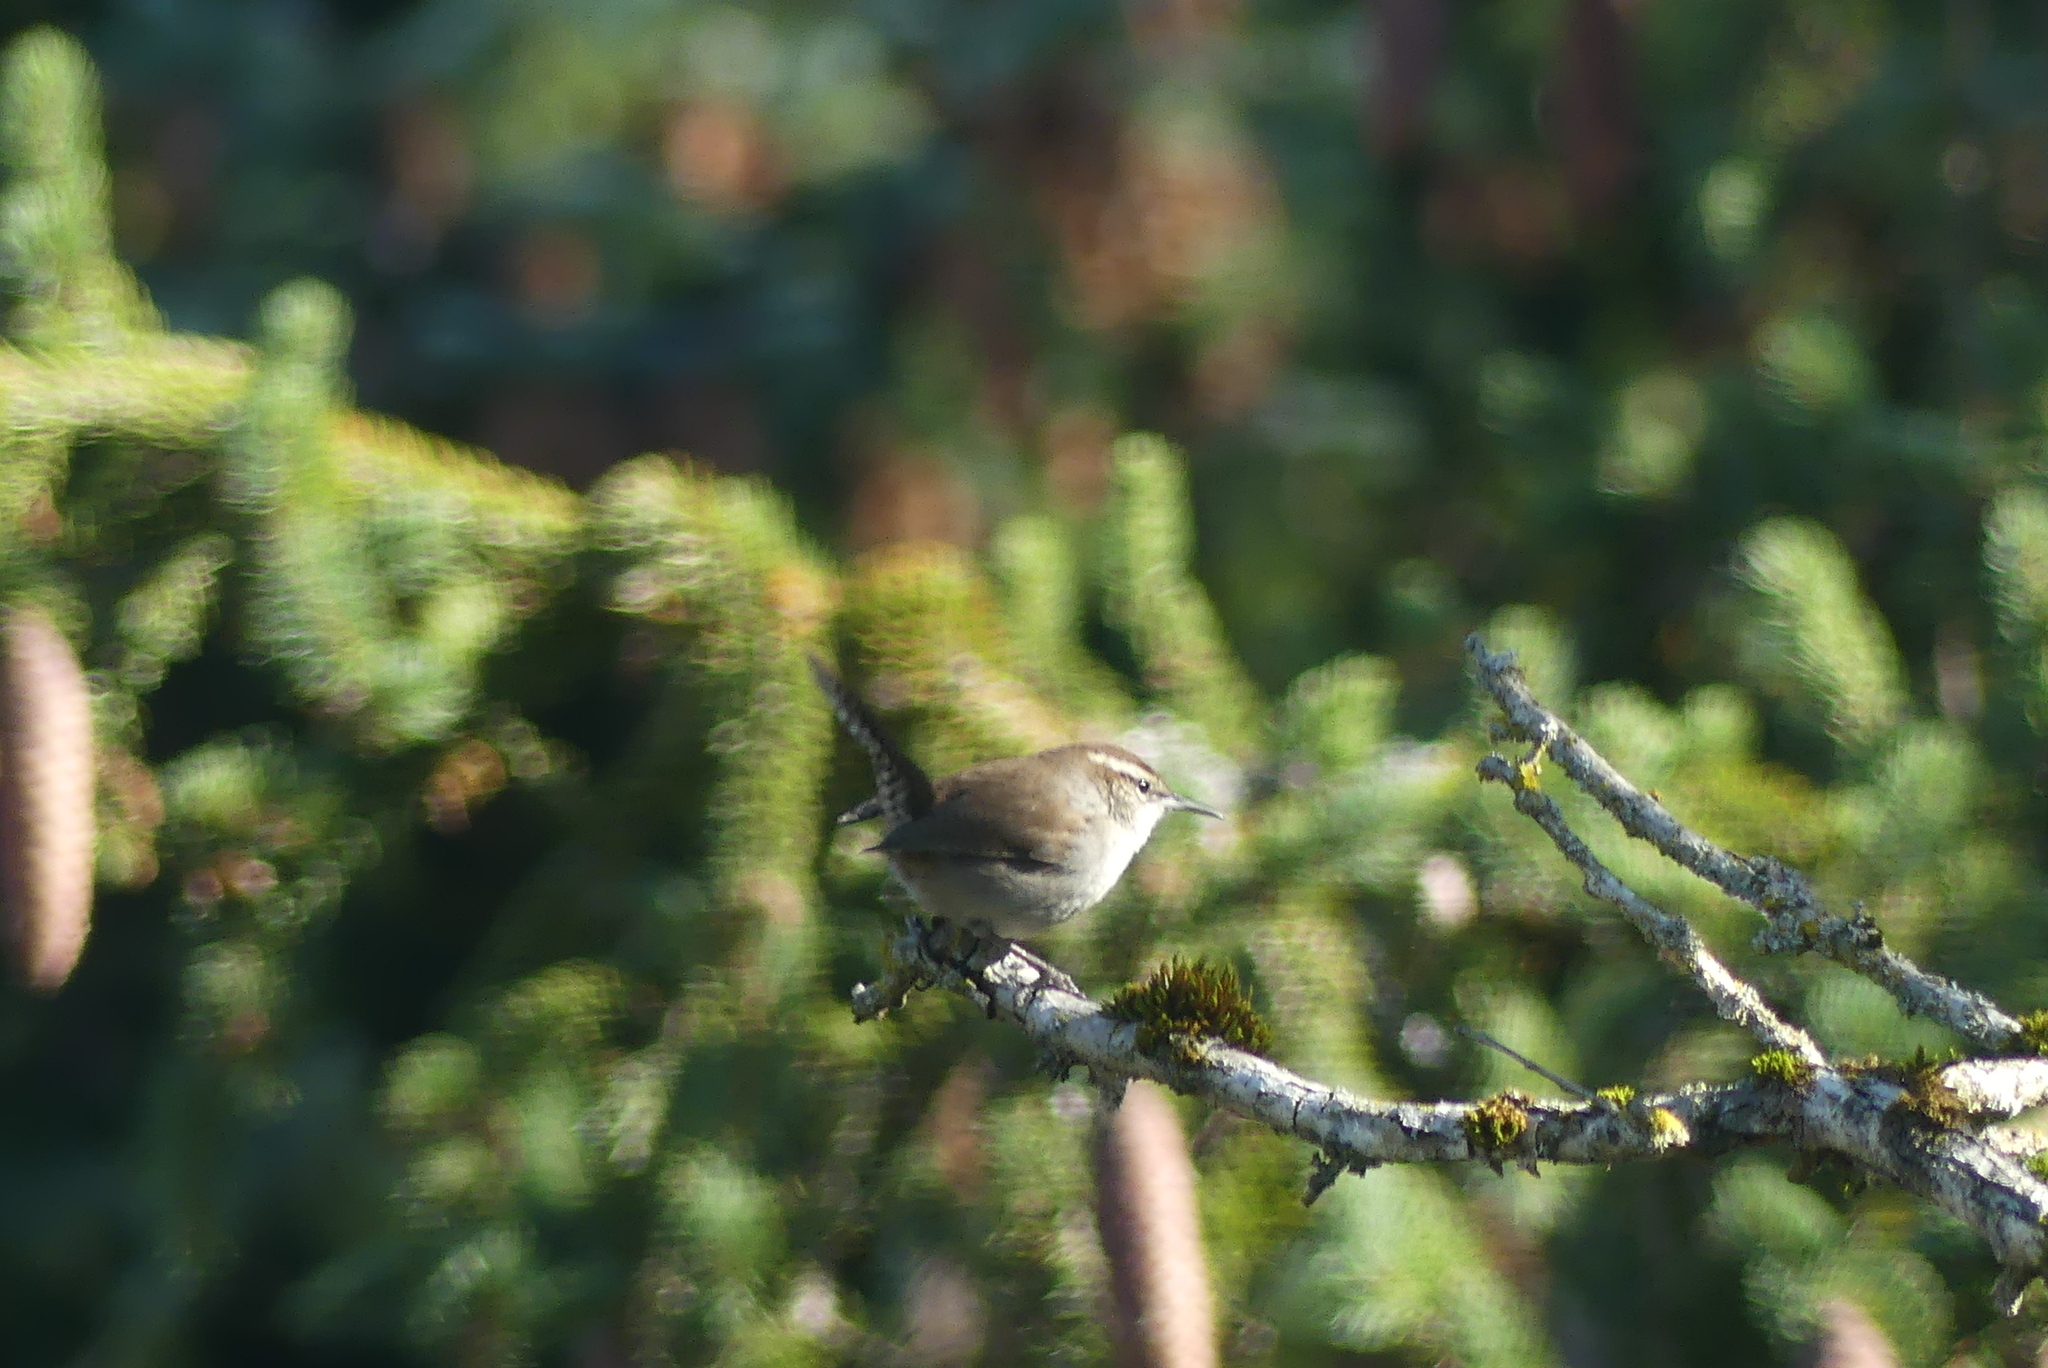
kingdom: Animalia
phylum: Chordata
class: Aves
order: Passeriformes
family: Troglodytidae
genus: Thryomanes
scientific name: Thryomanes bewickii
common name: Bewick's wren
